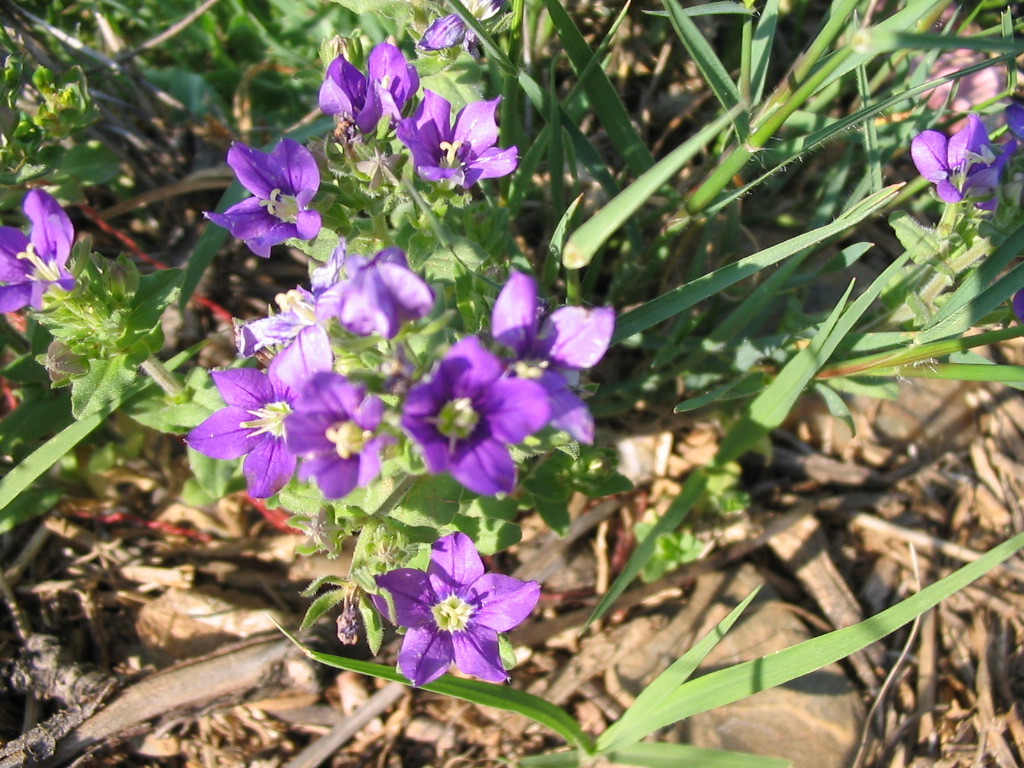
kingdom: Plantae
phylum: Tracheophyta
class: Magnoliopsida
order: Asterales
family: Campanulaceae
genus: Legousia
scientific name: Legousia speculum-veneris
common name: Large venus's-looking-glass
